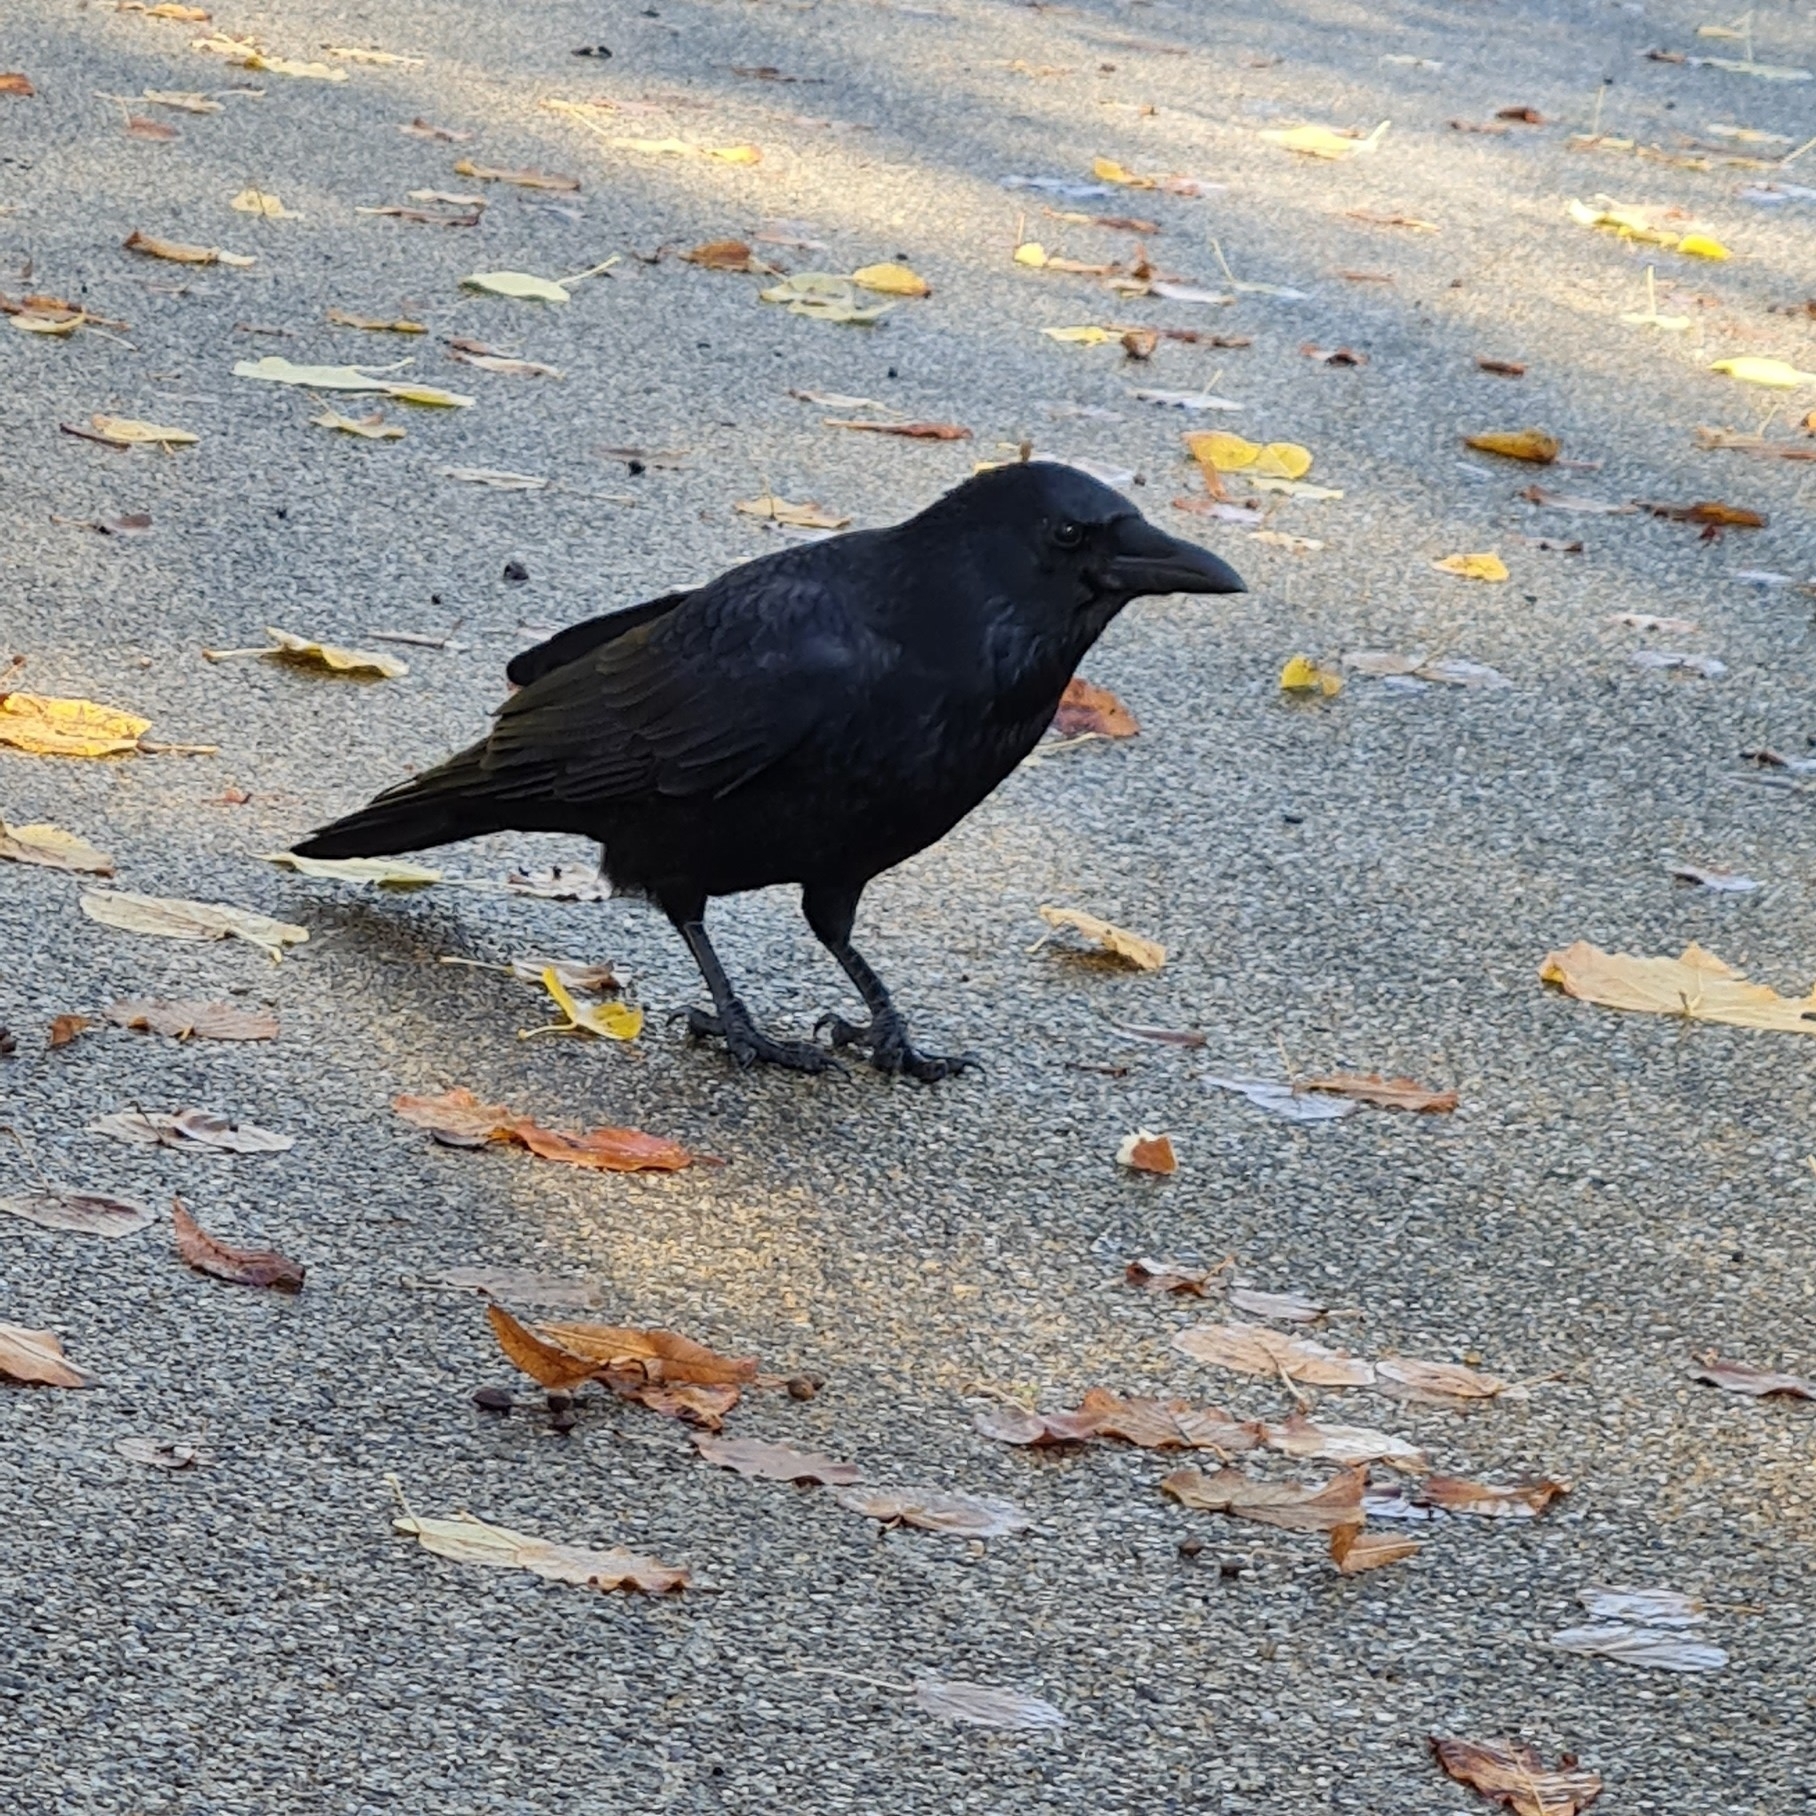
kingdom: Animalia
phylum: Chordata
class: Aves
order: Passeriformes
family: Corvidae
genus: Corvus
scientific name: Corvus corone
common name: Carrion crow
